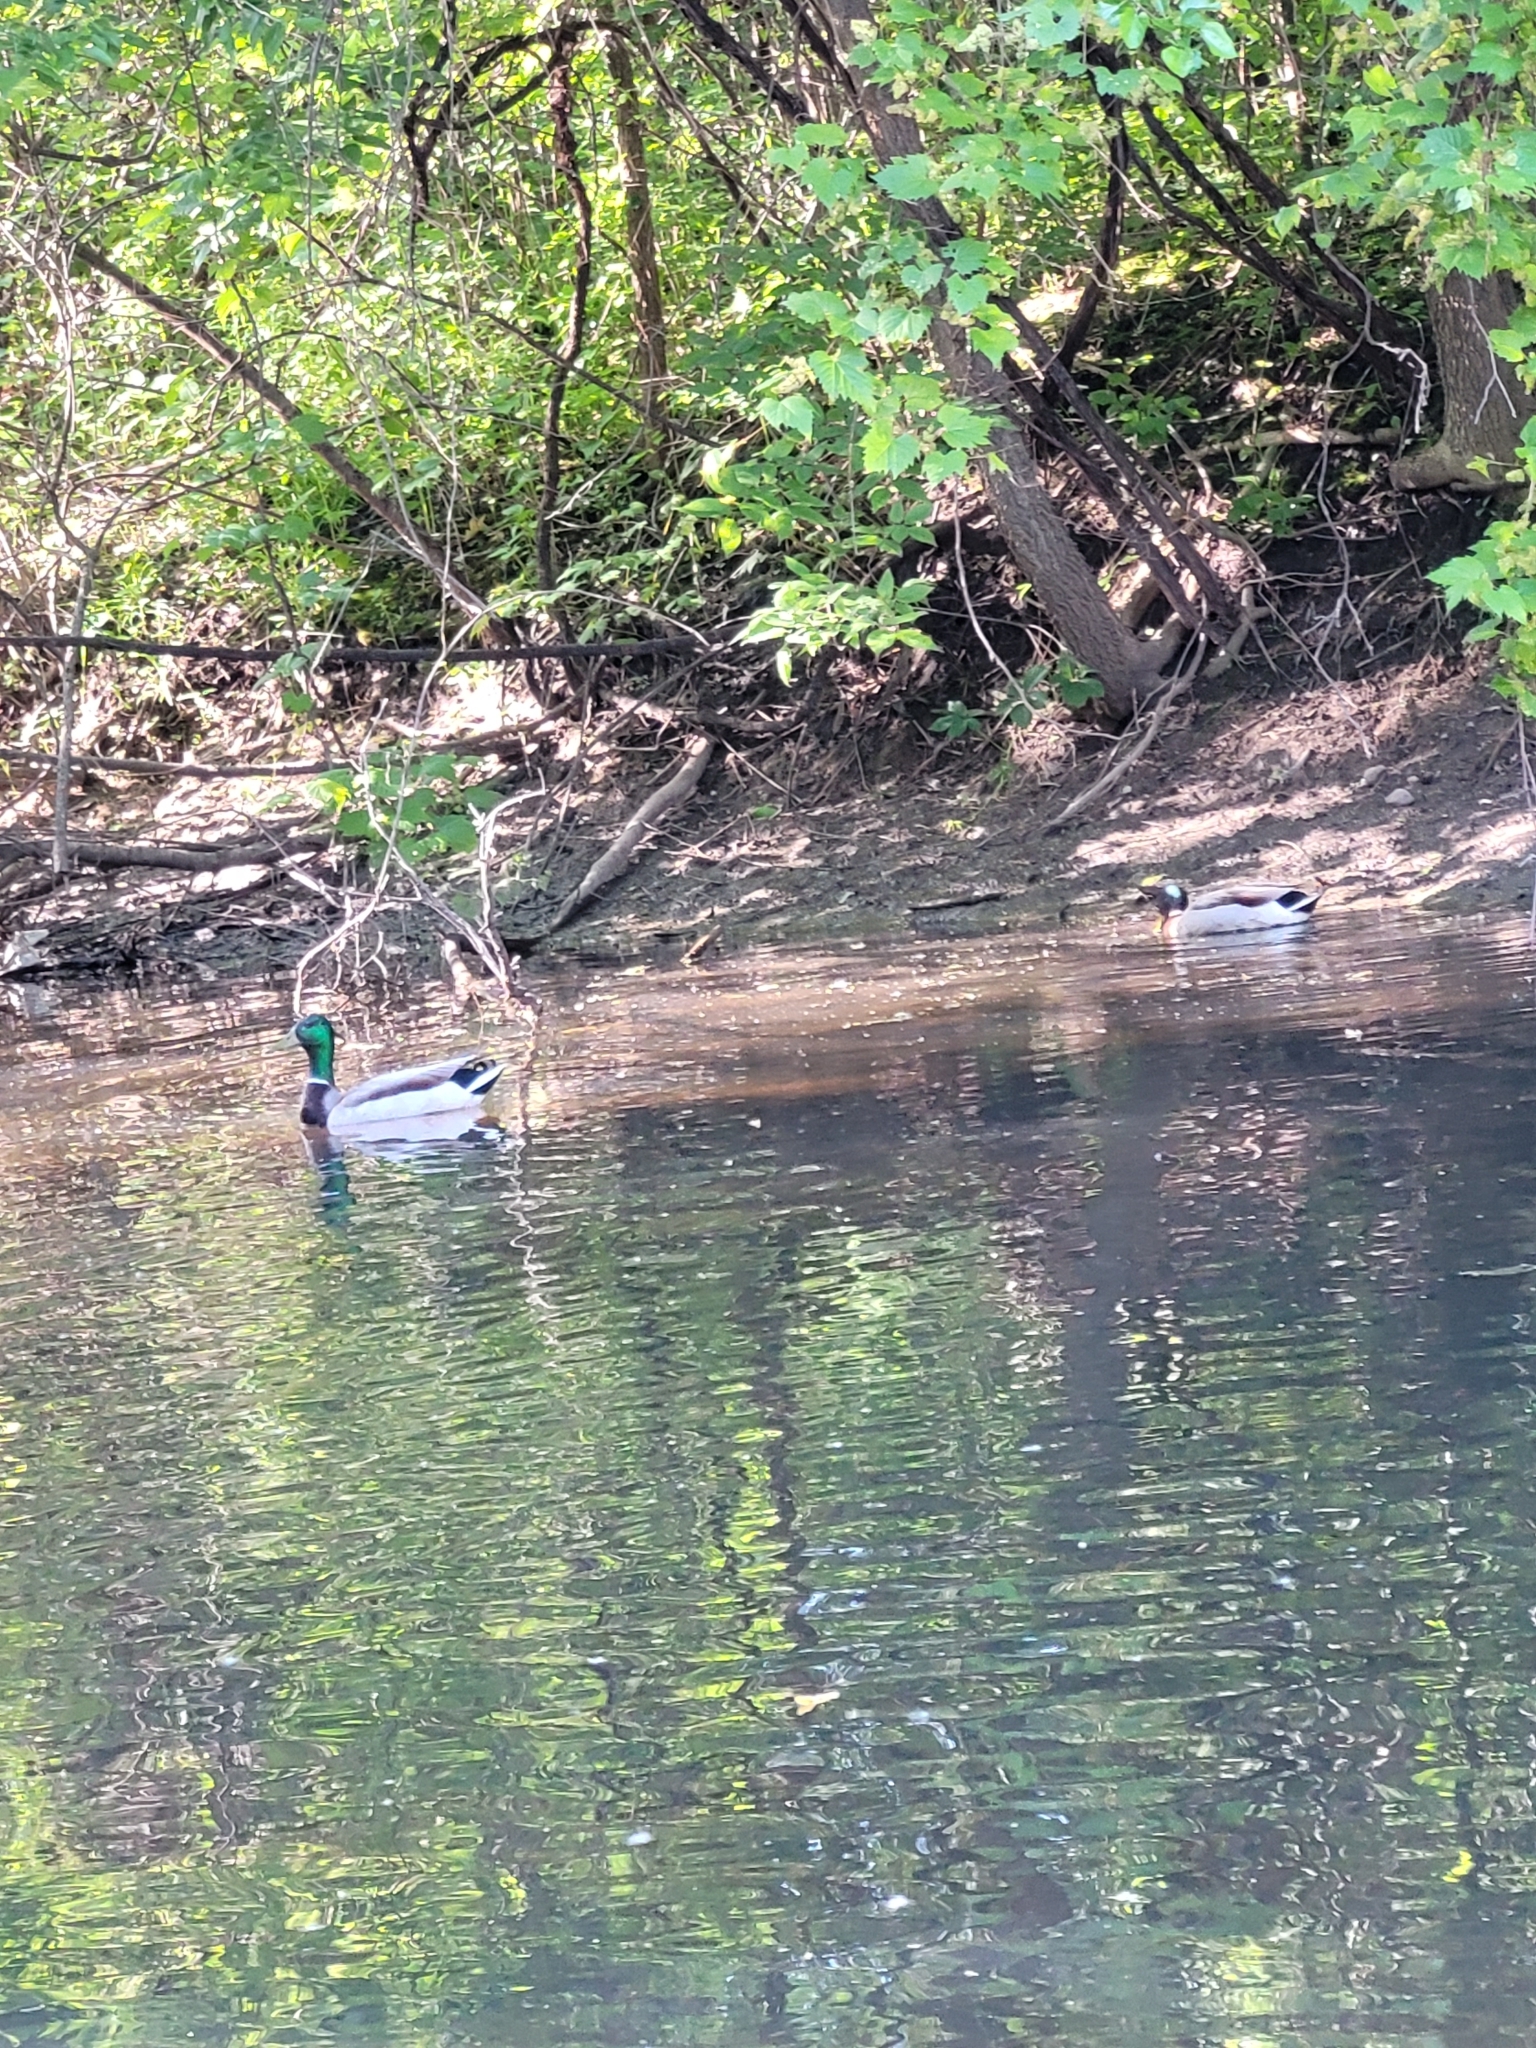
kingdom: Animalia
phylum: Chordata
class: Aves
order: Anseriformes
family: Anatidae
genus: Anas
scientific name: Anas platyrhynchos
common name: Mallard
